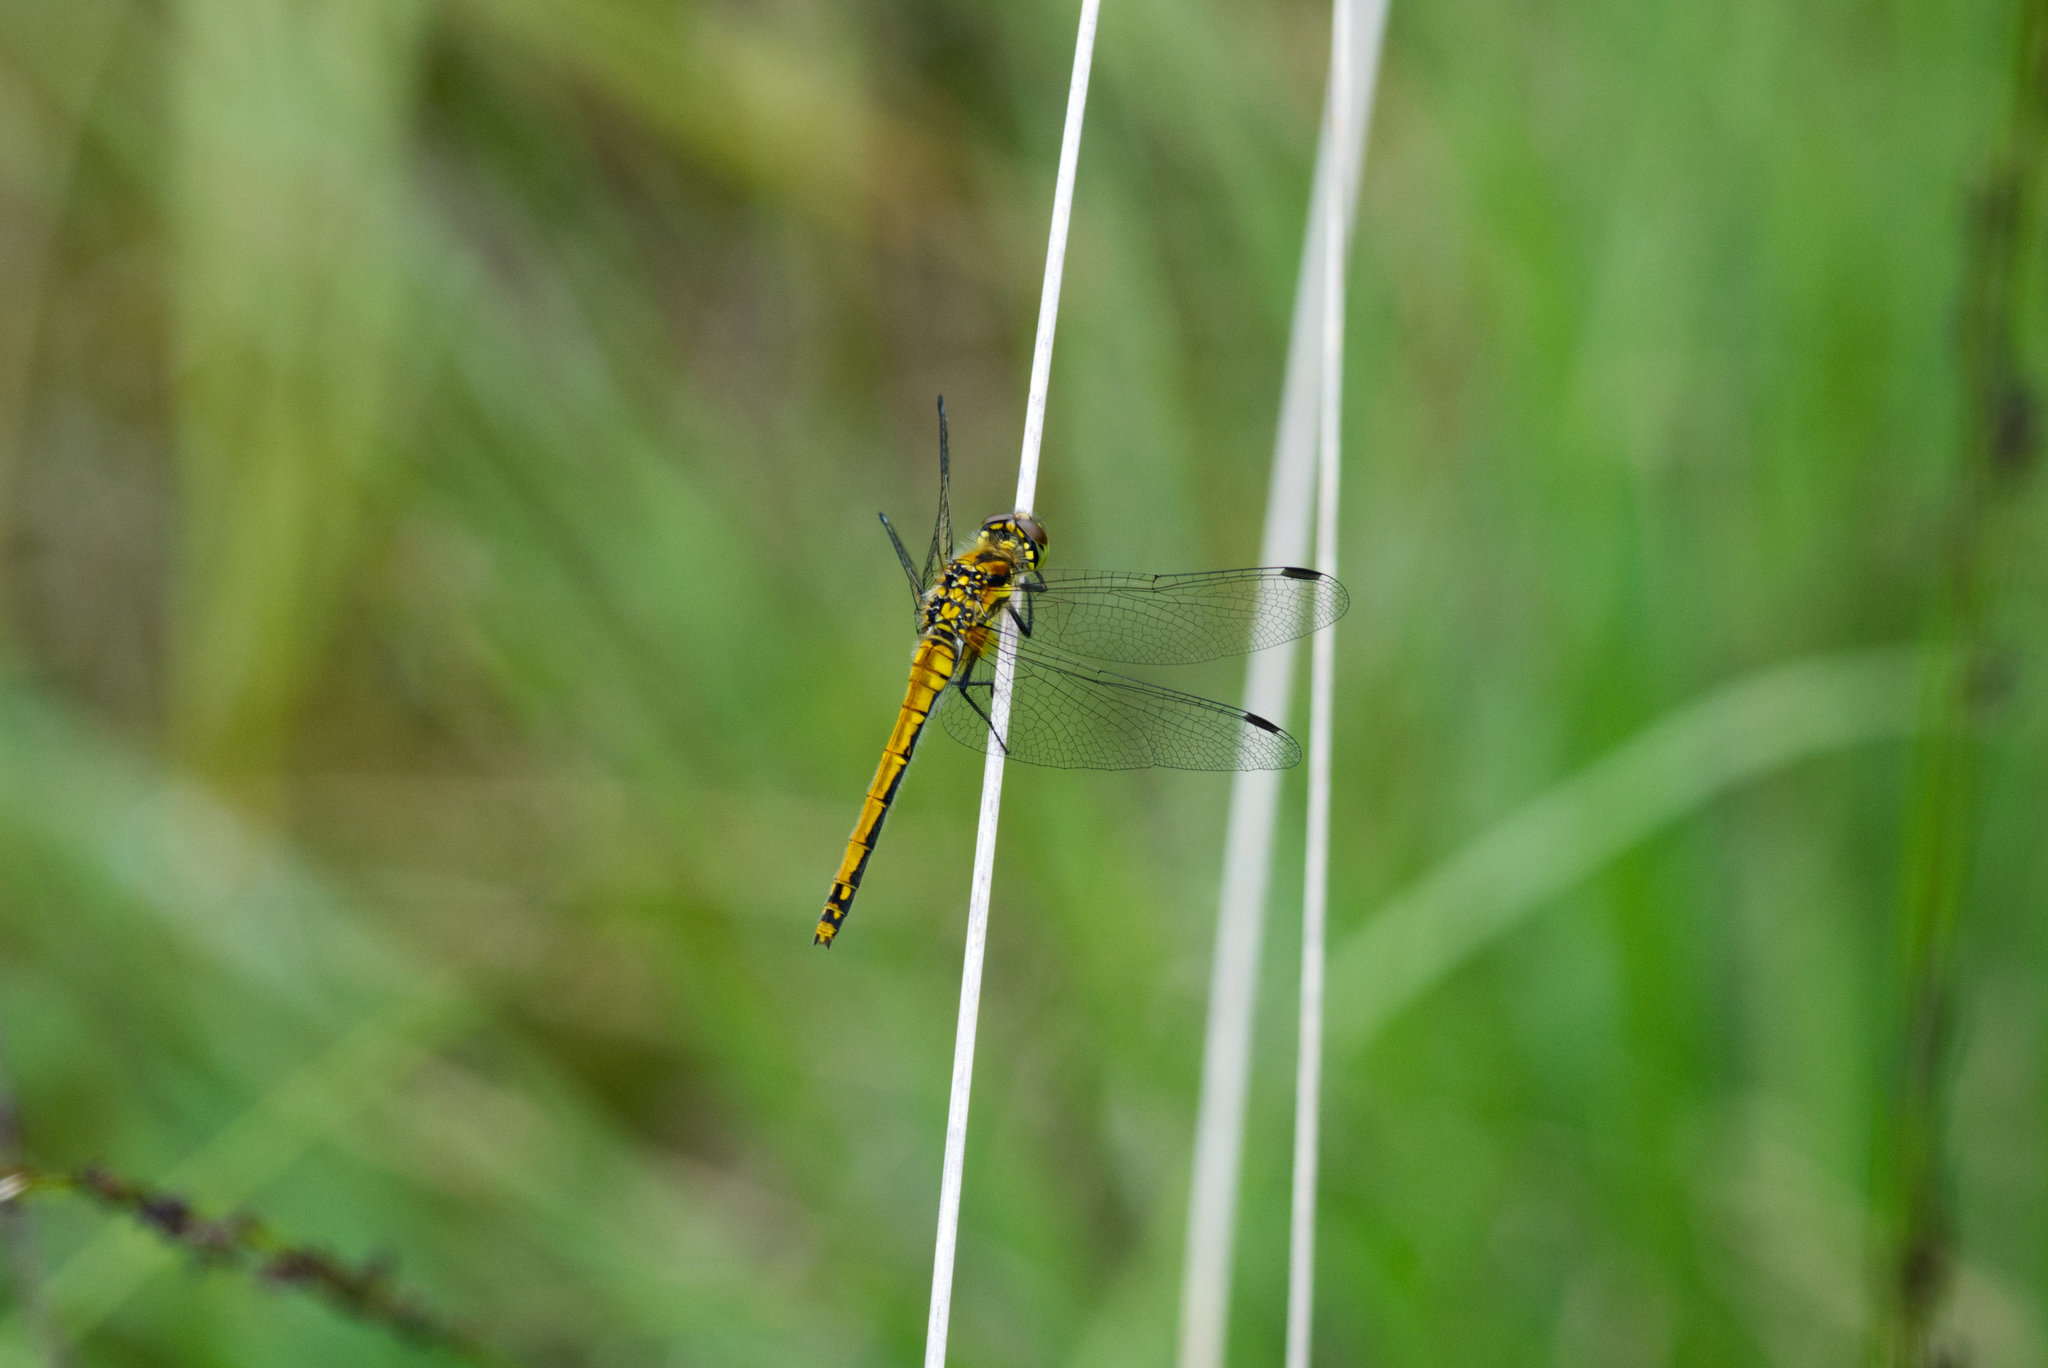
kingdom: Animalia
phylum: Arthropoda
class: Insecta
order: Odonata
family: Libellulidae
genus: Sympetrum
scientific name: Sympetrum danae
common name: Black darter
